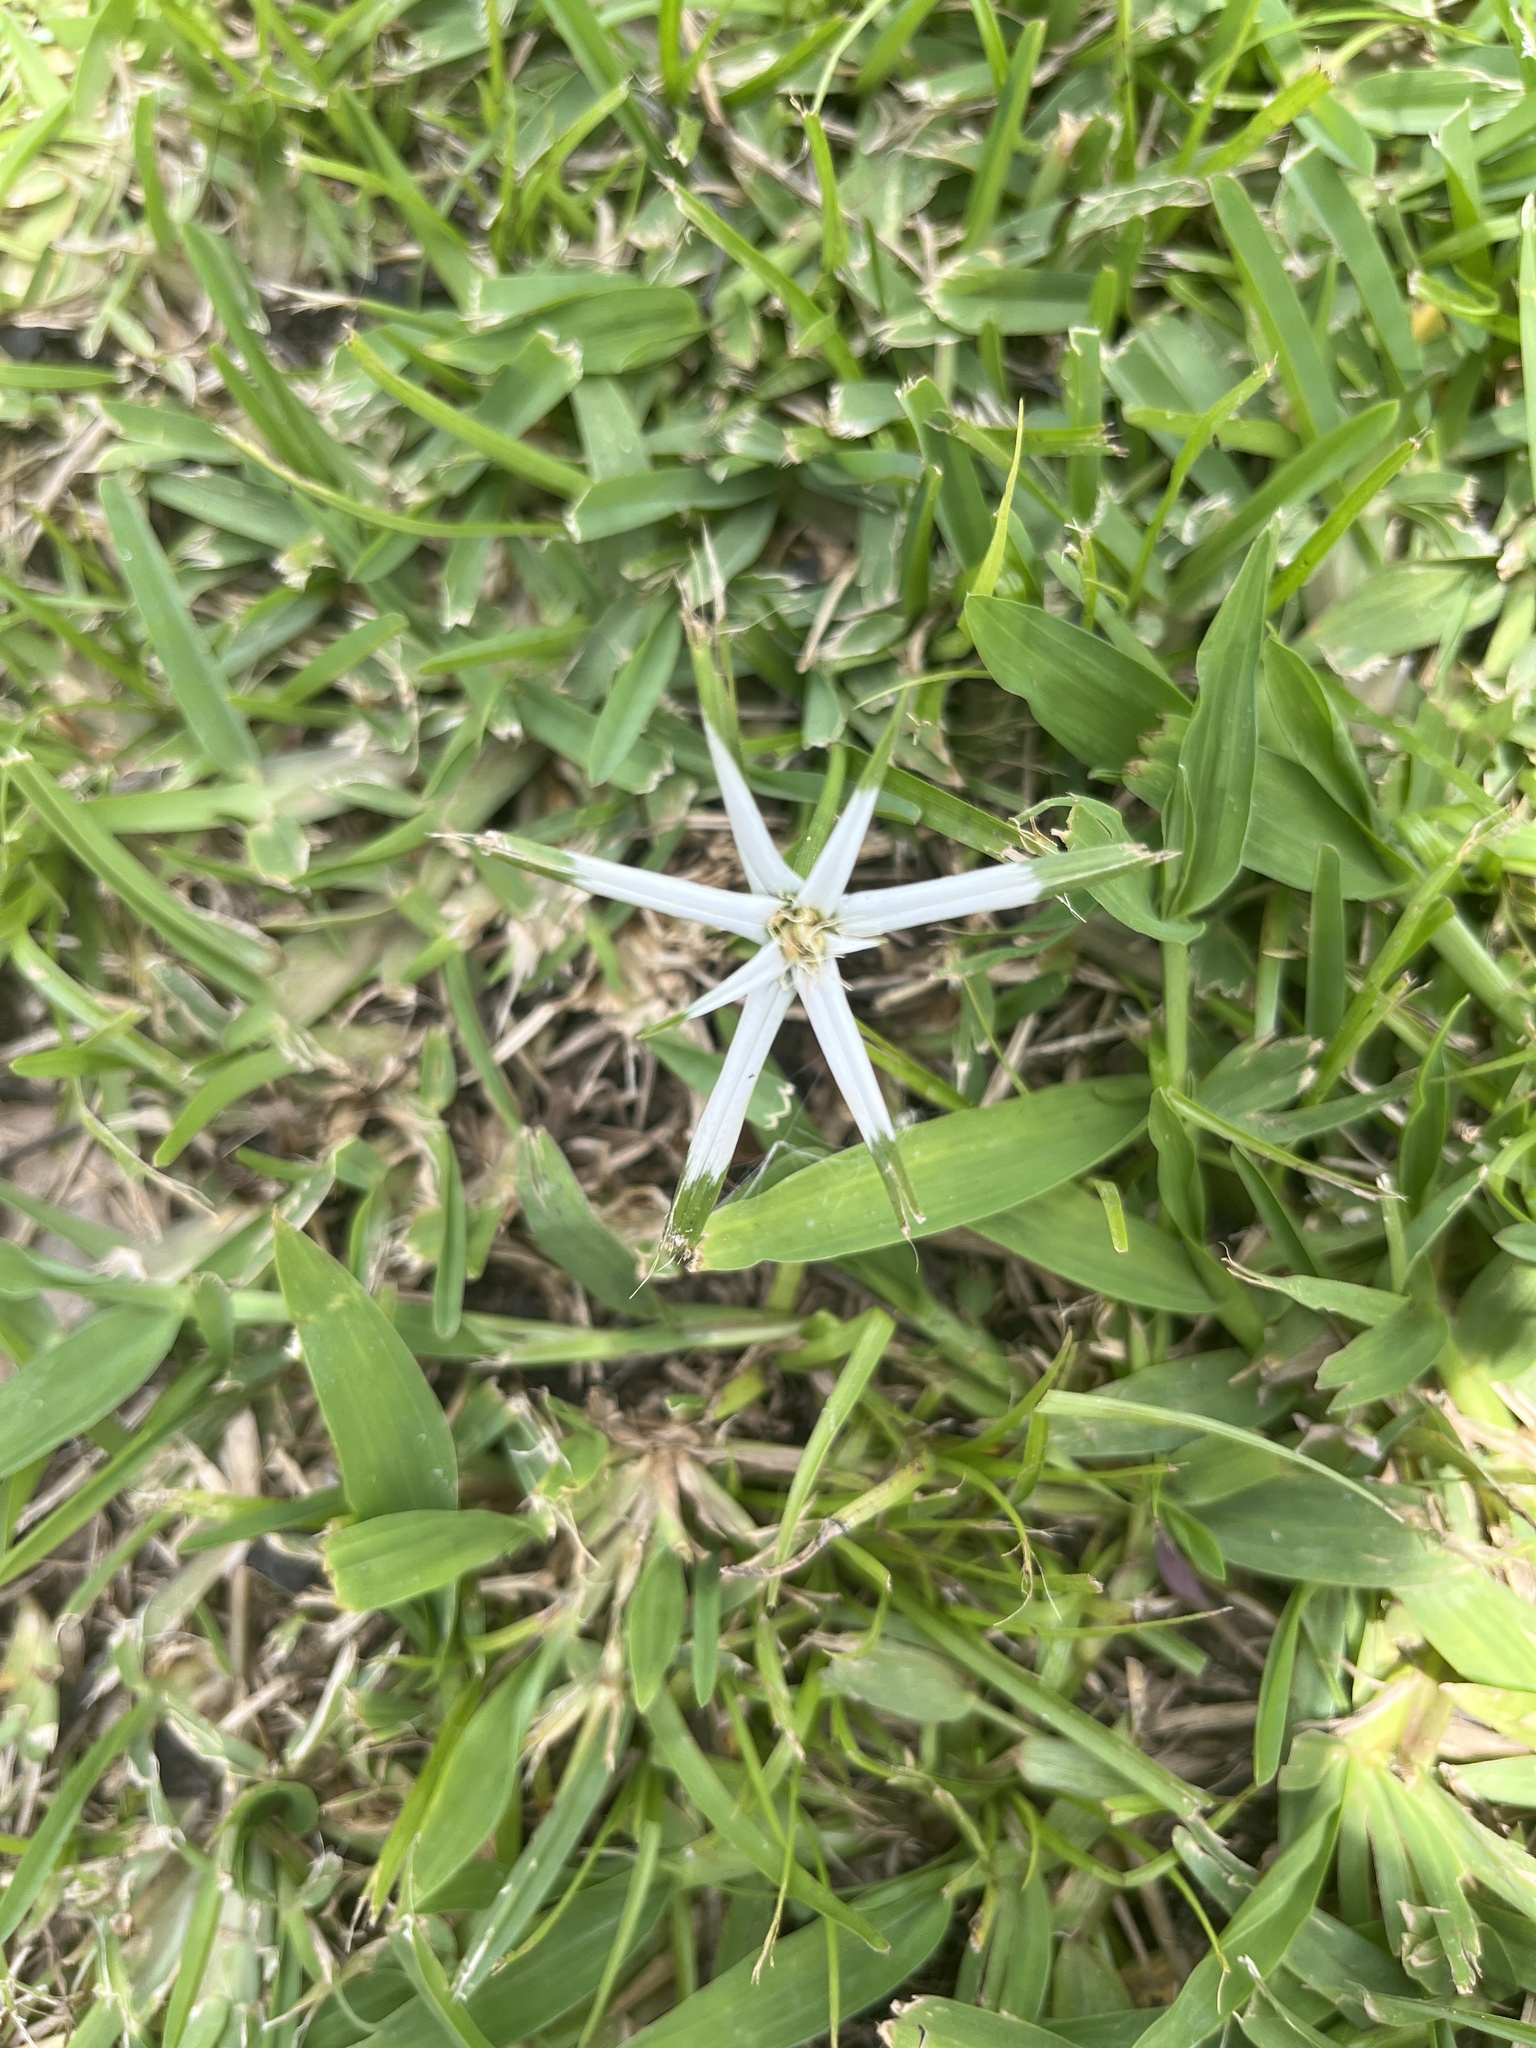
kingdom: Plantae
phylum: Tracheophyta
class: Liliopsida
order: Poales
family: Cyperaceae
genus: Rhynchospora
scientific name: Rhynchospora pura
